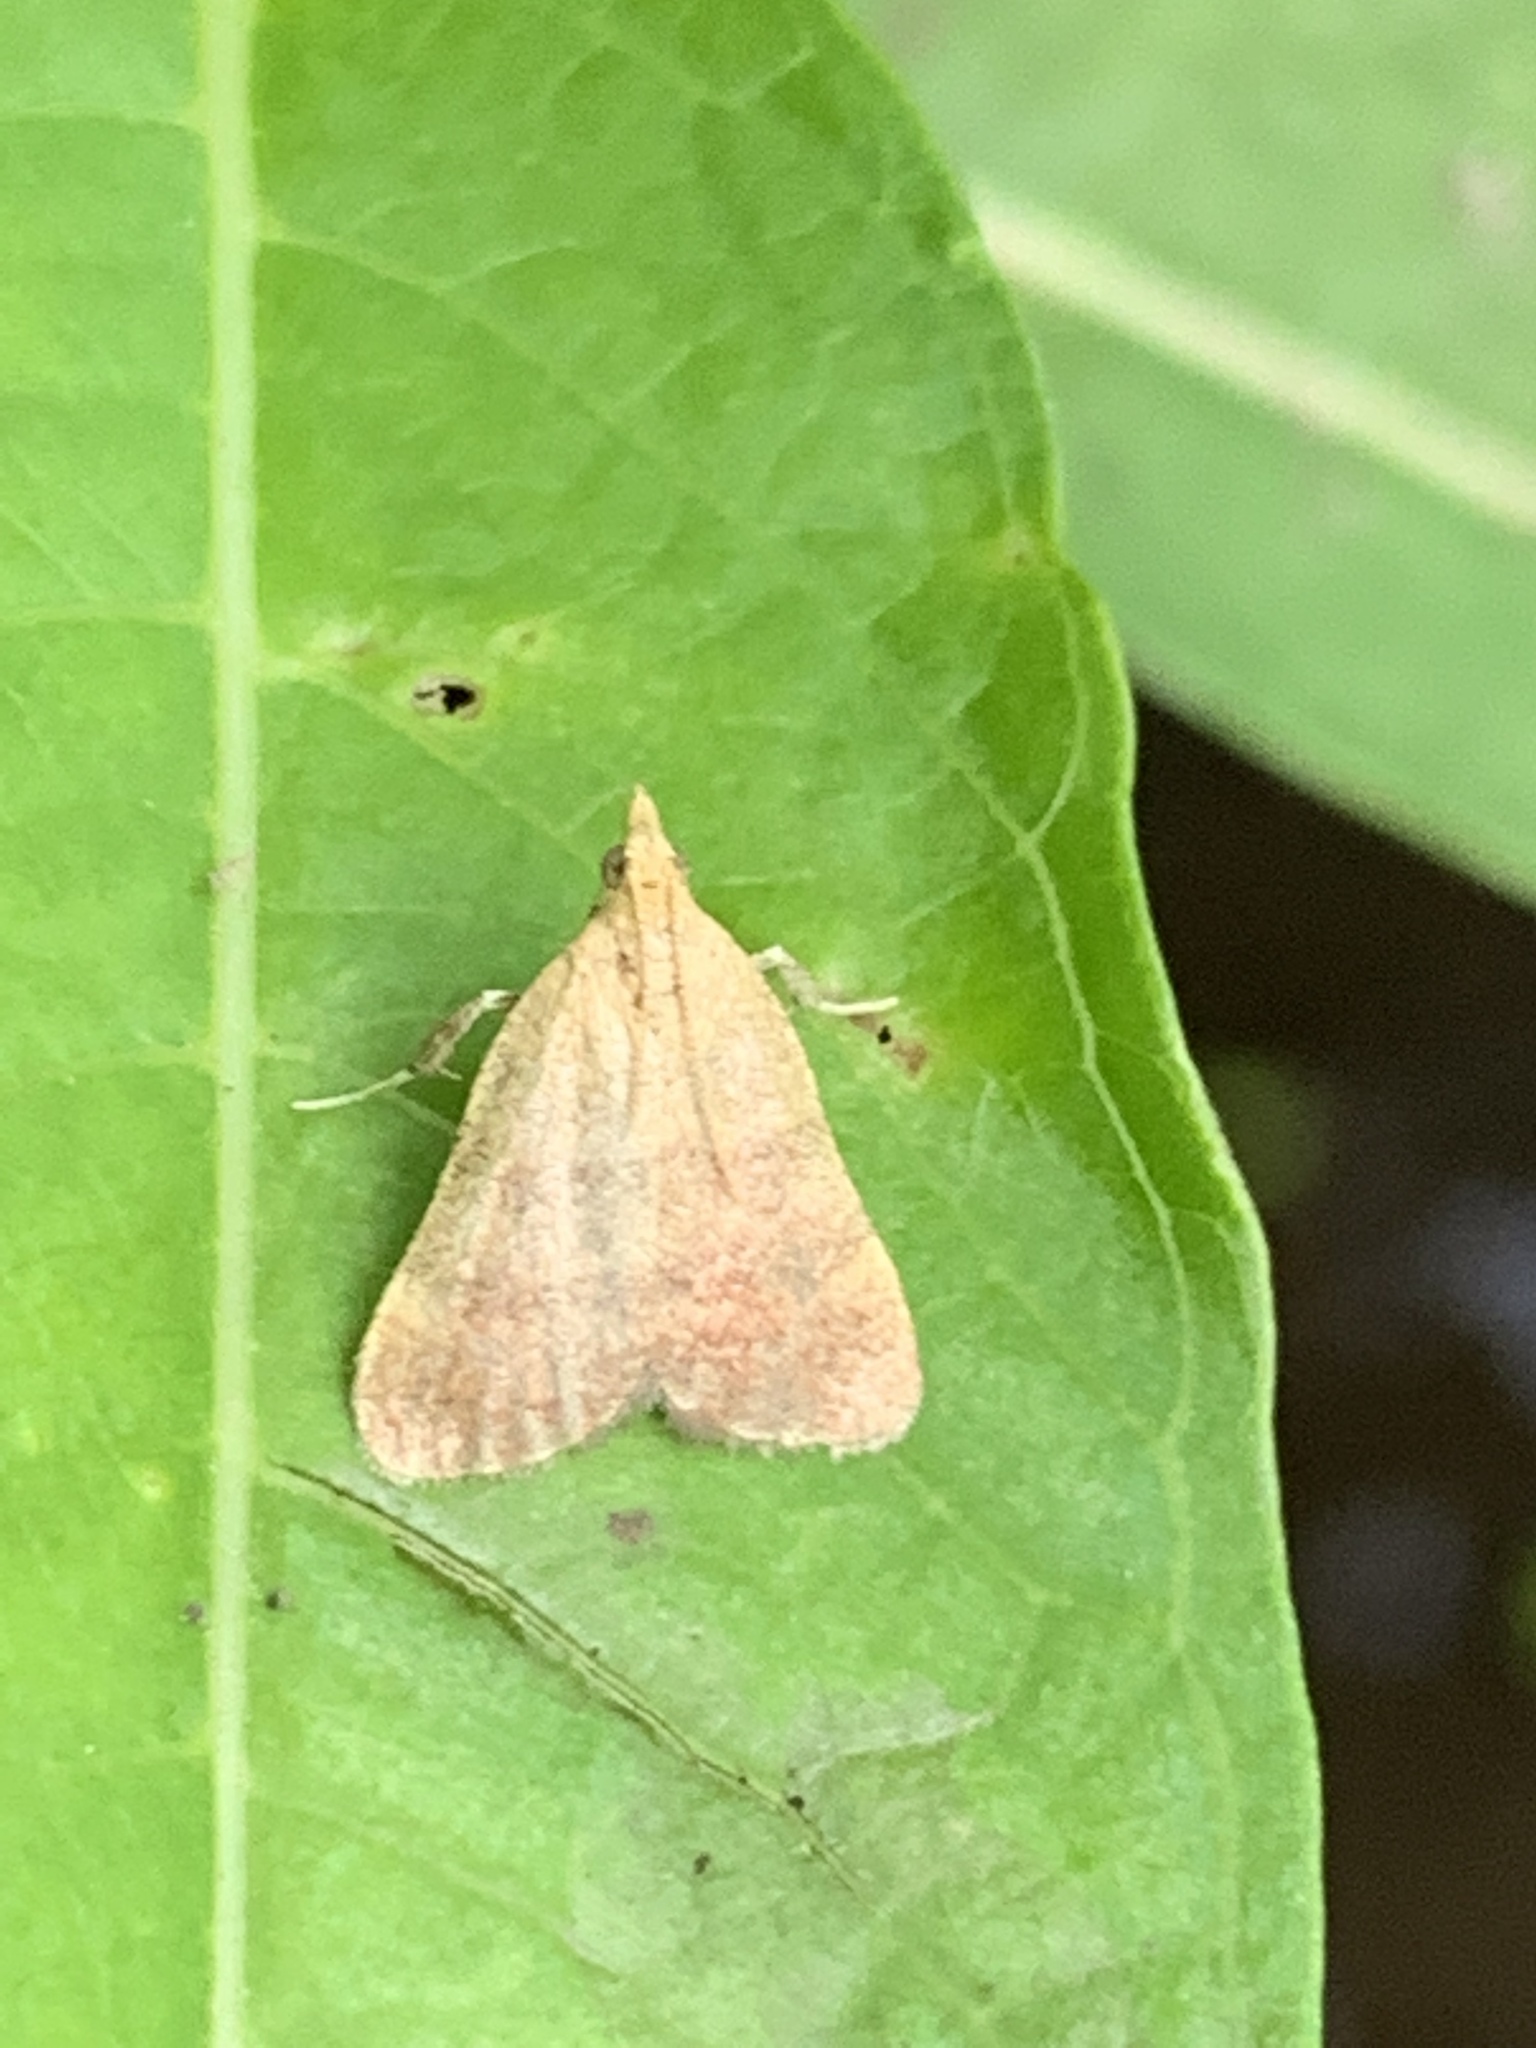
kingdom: Animalia
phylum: Arthropoda
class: Insecta
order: Lepidoptera
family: Pyralidae
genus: Condylolomia
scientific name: Condylolomia participialis
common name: Drab condylolomia moth
